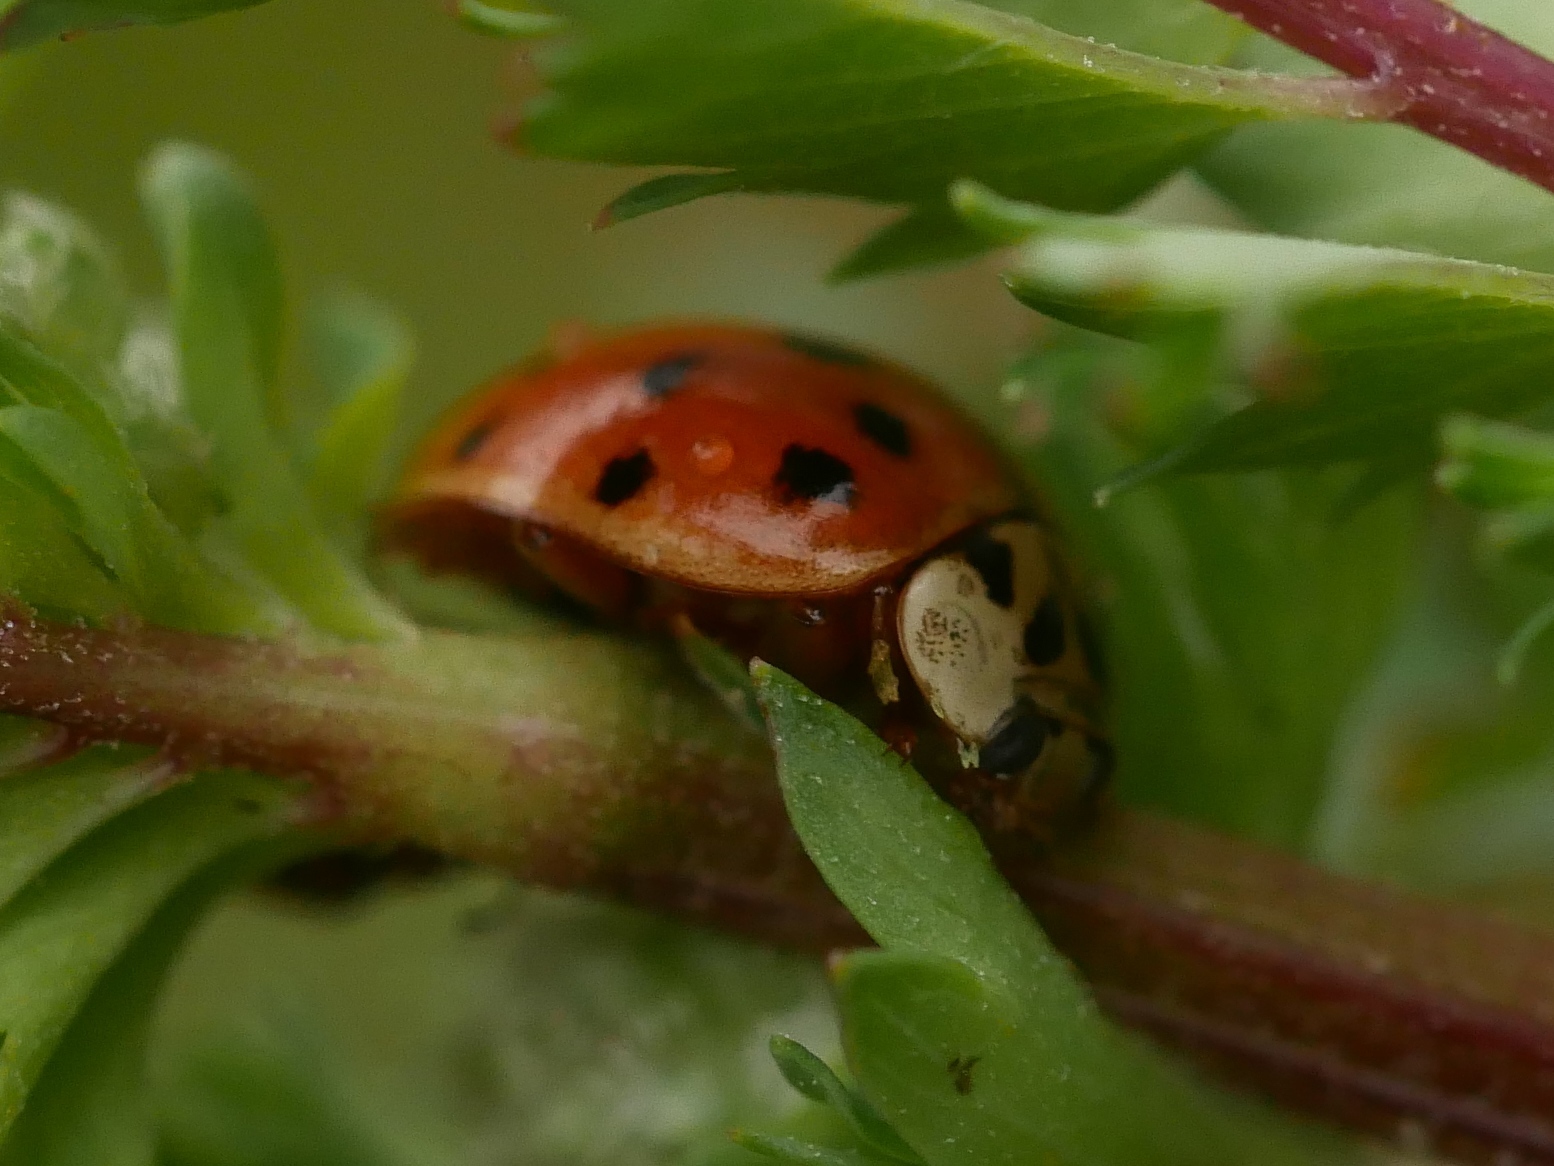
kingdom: Animalia
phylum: Arthropoda
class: Insecta
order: Coleoptera
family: Coccinellidae
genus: Harmonia
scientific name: Harmonia axyridis
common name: Harlequin ladybird
